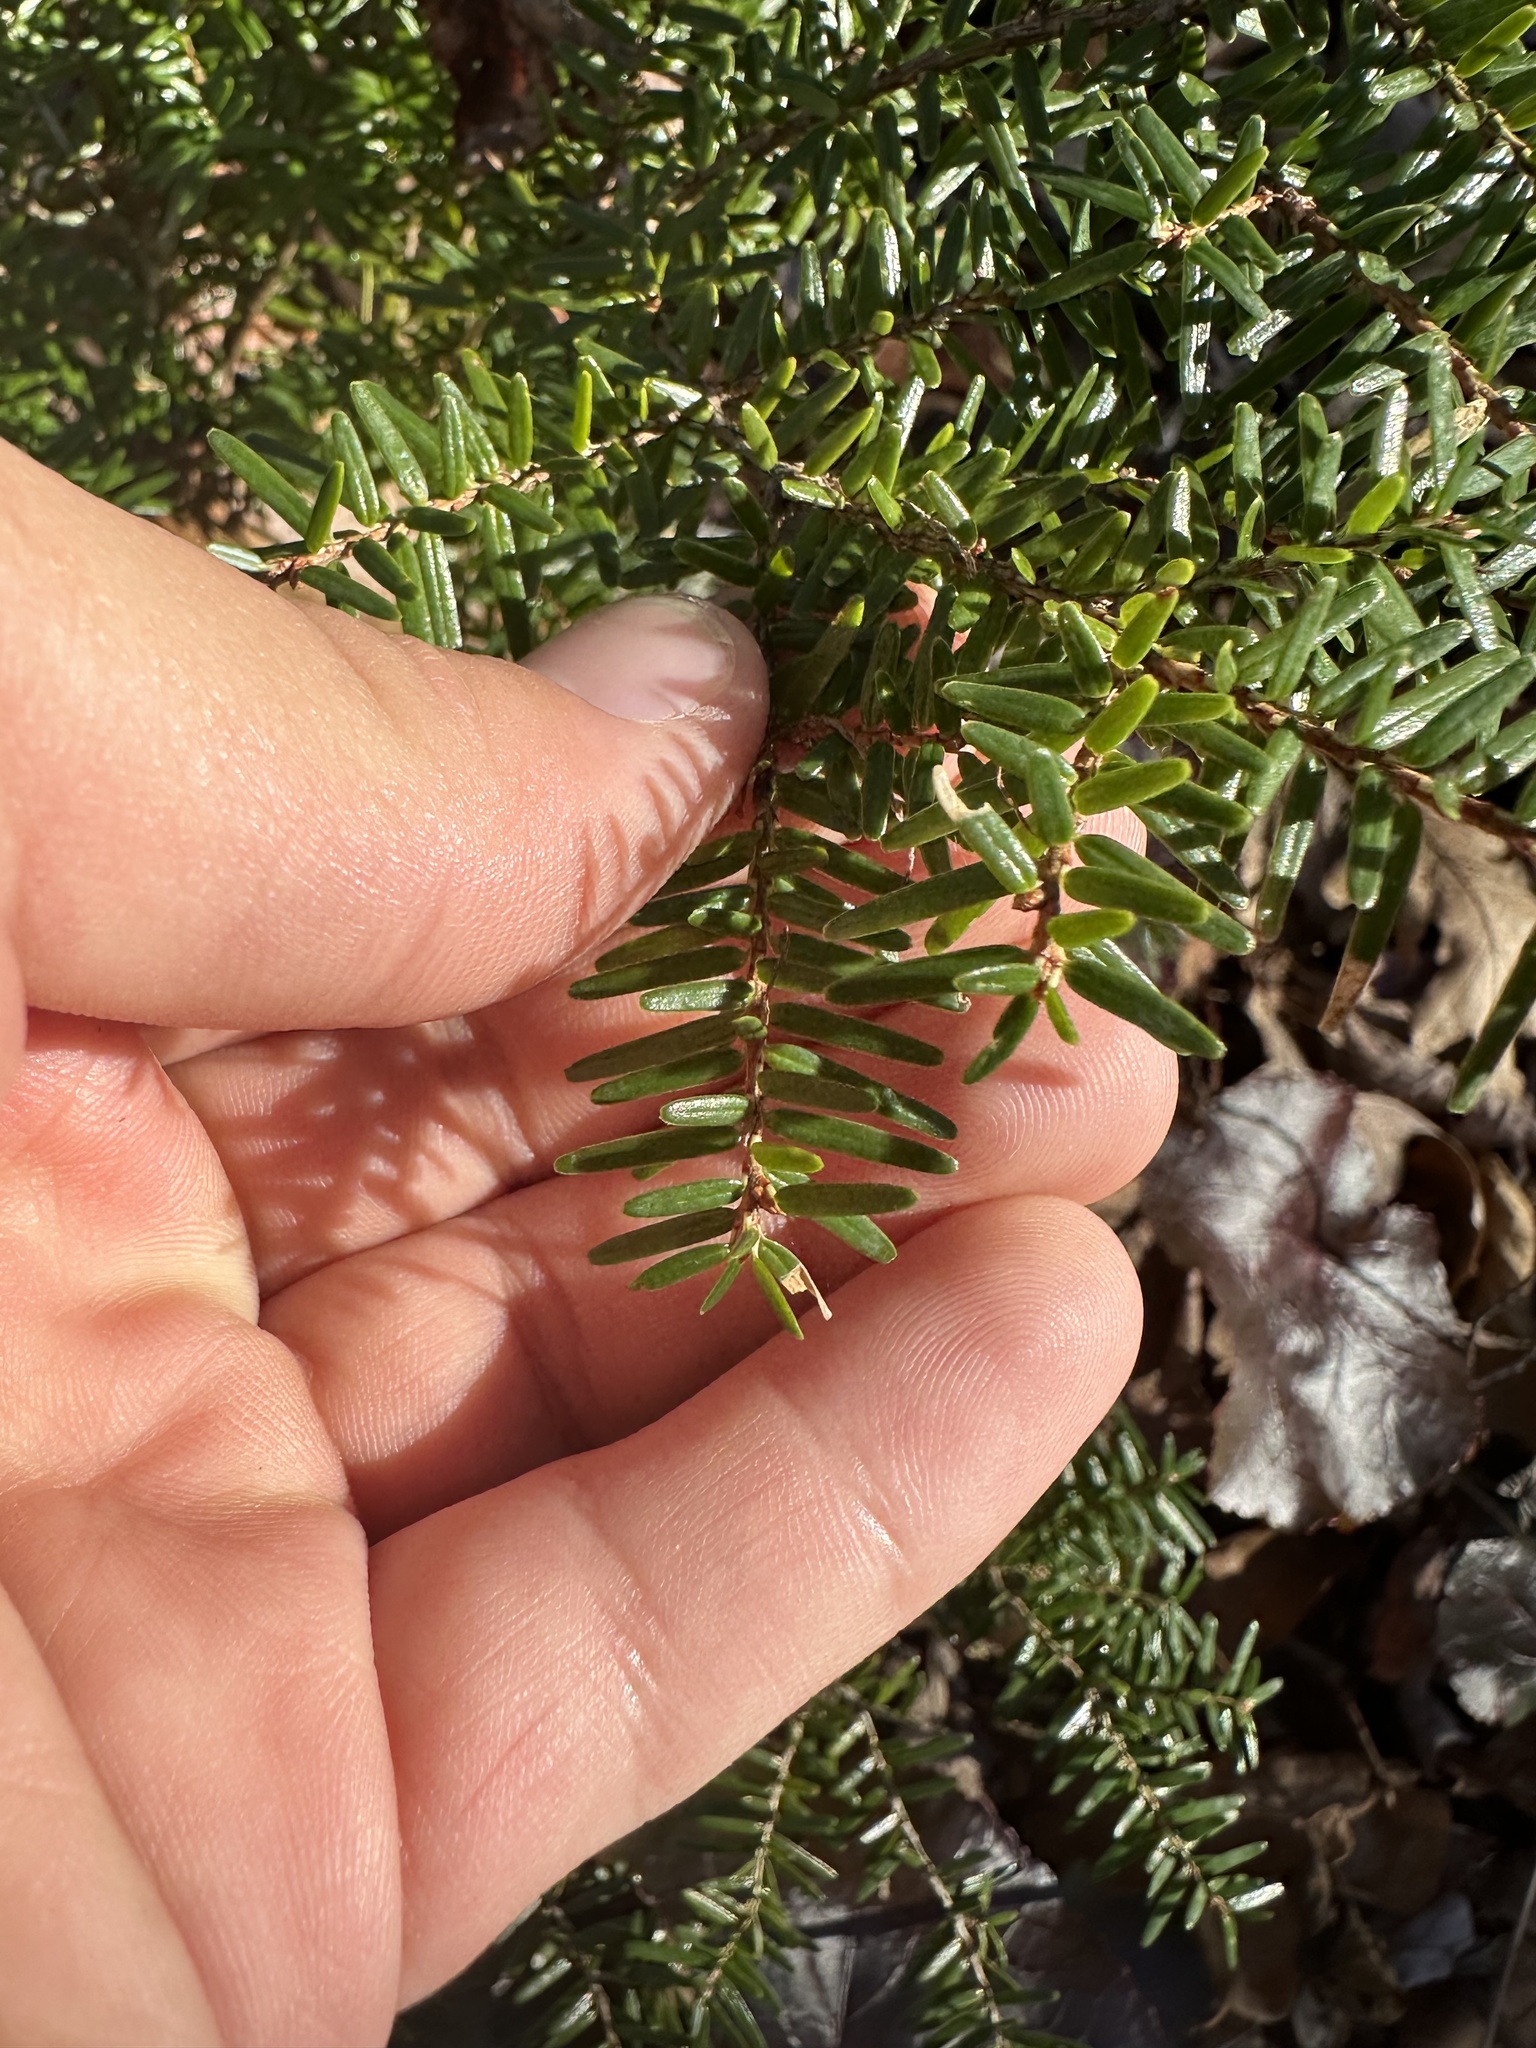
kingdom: Plantae
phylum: Tracheophyta
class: Pinopsida
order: Pinales
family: Pinaceae
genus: Tsuga
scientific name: Tsuga caroliniana
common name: Carolina hemlock
